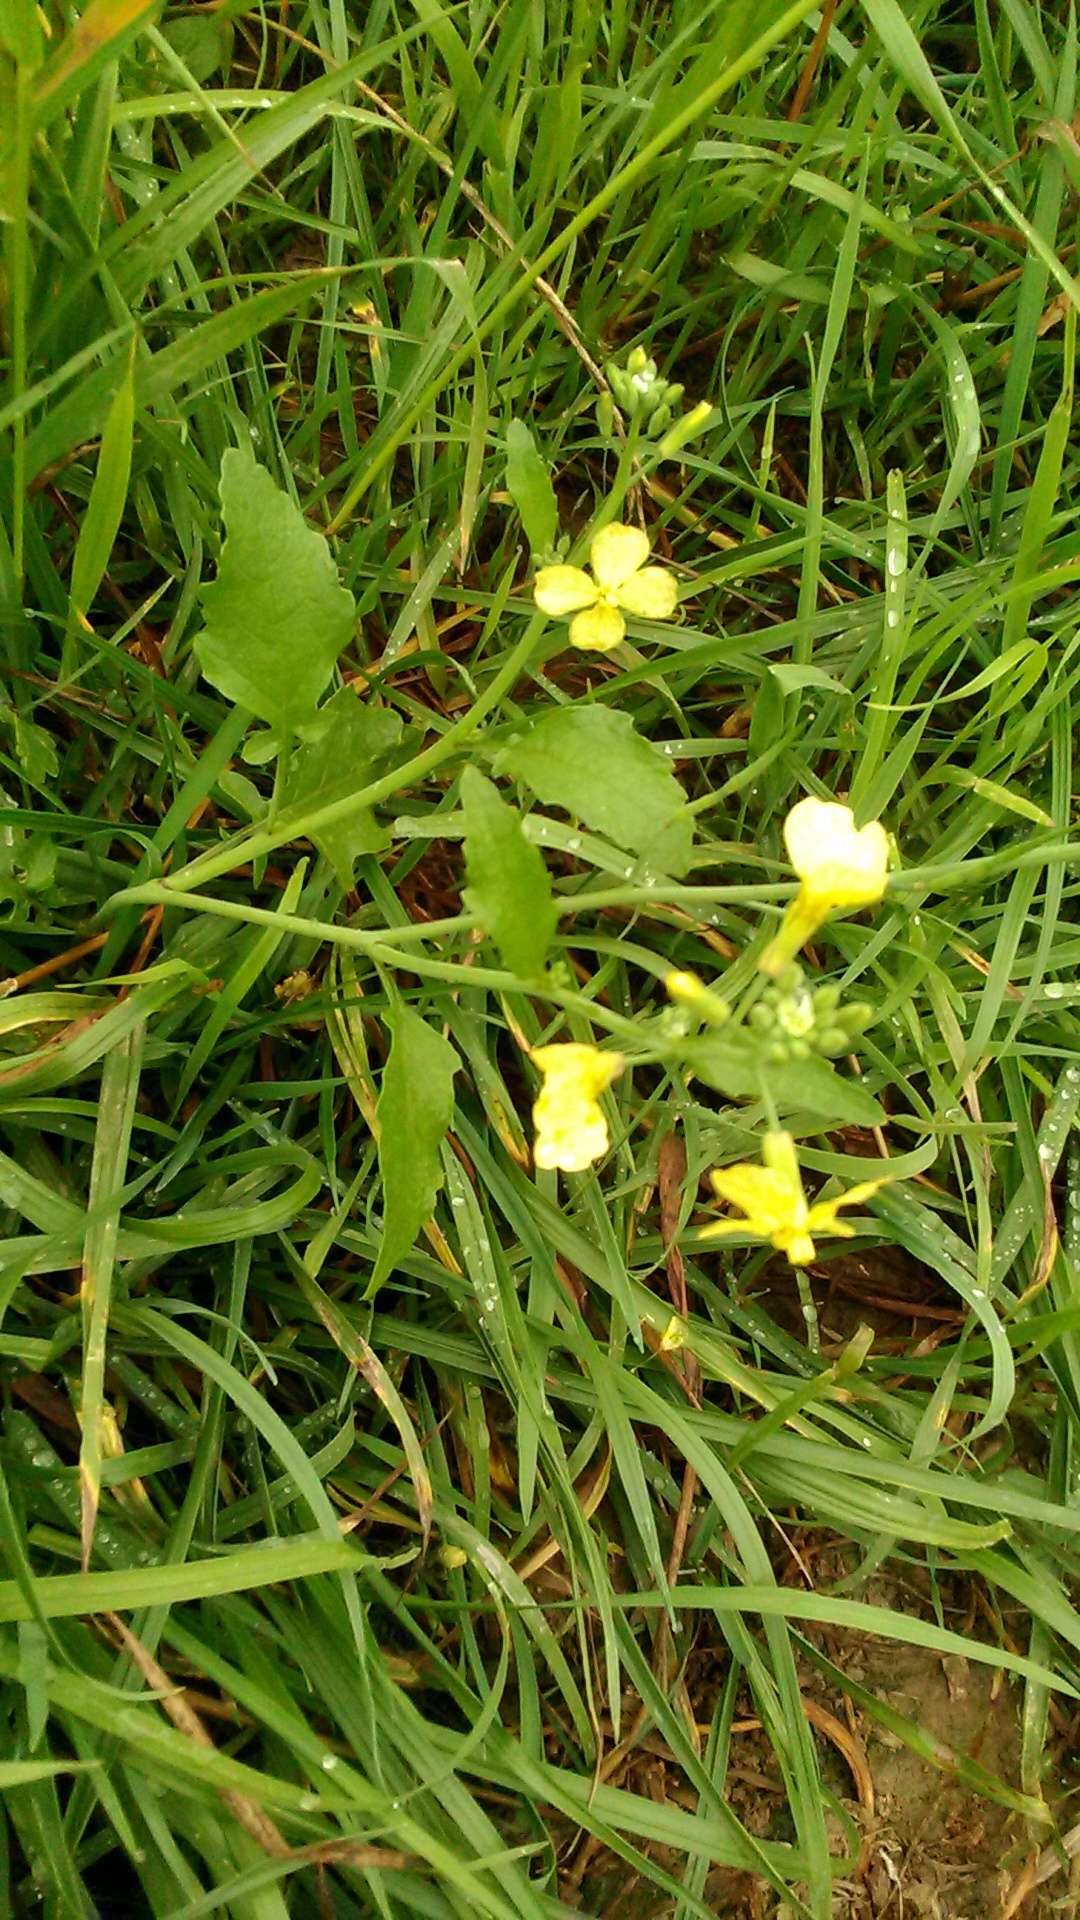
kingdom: Plantae
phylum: Tracheophyta
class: Magnoliopsida
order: Brassicales
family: Brassicaceae
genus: Raphanus
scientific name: Raphanus raphanistrum
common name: Wild radish
